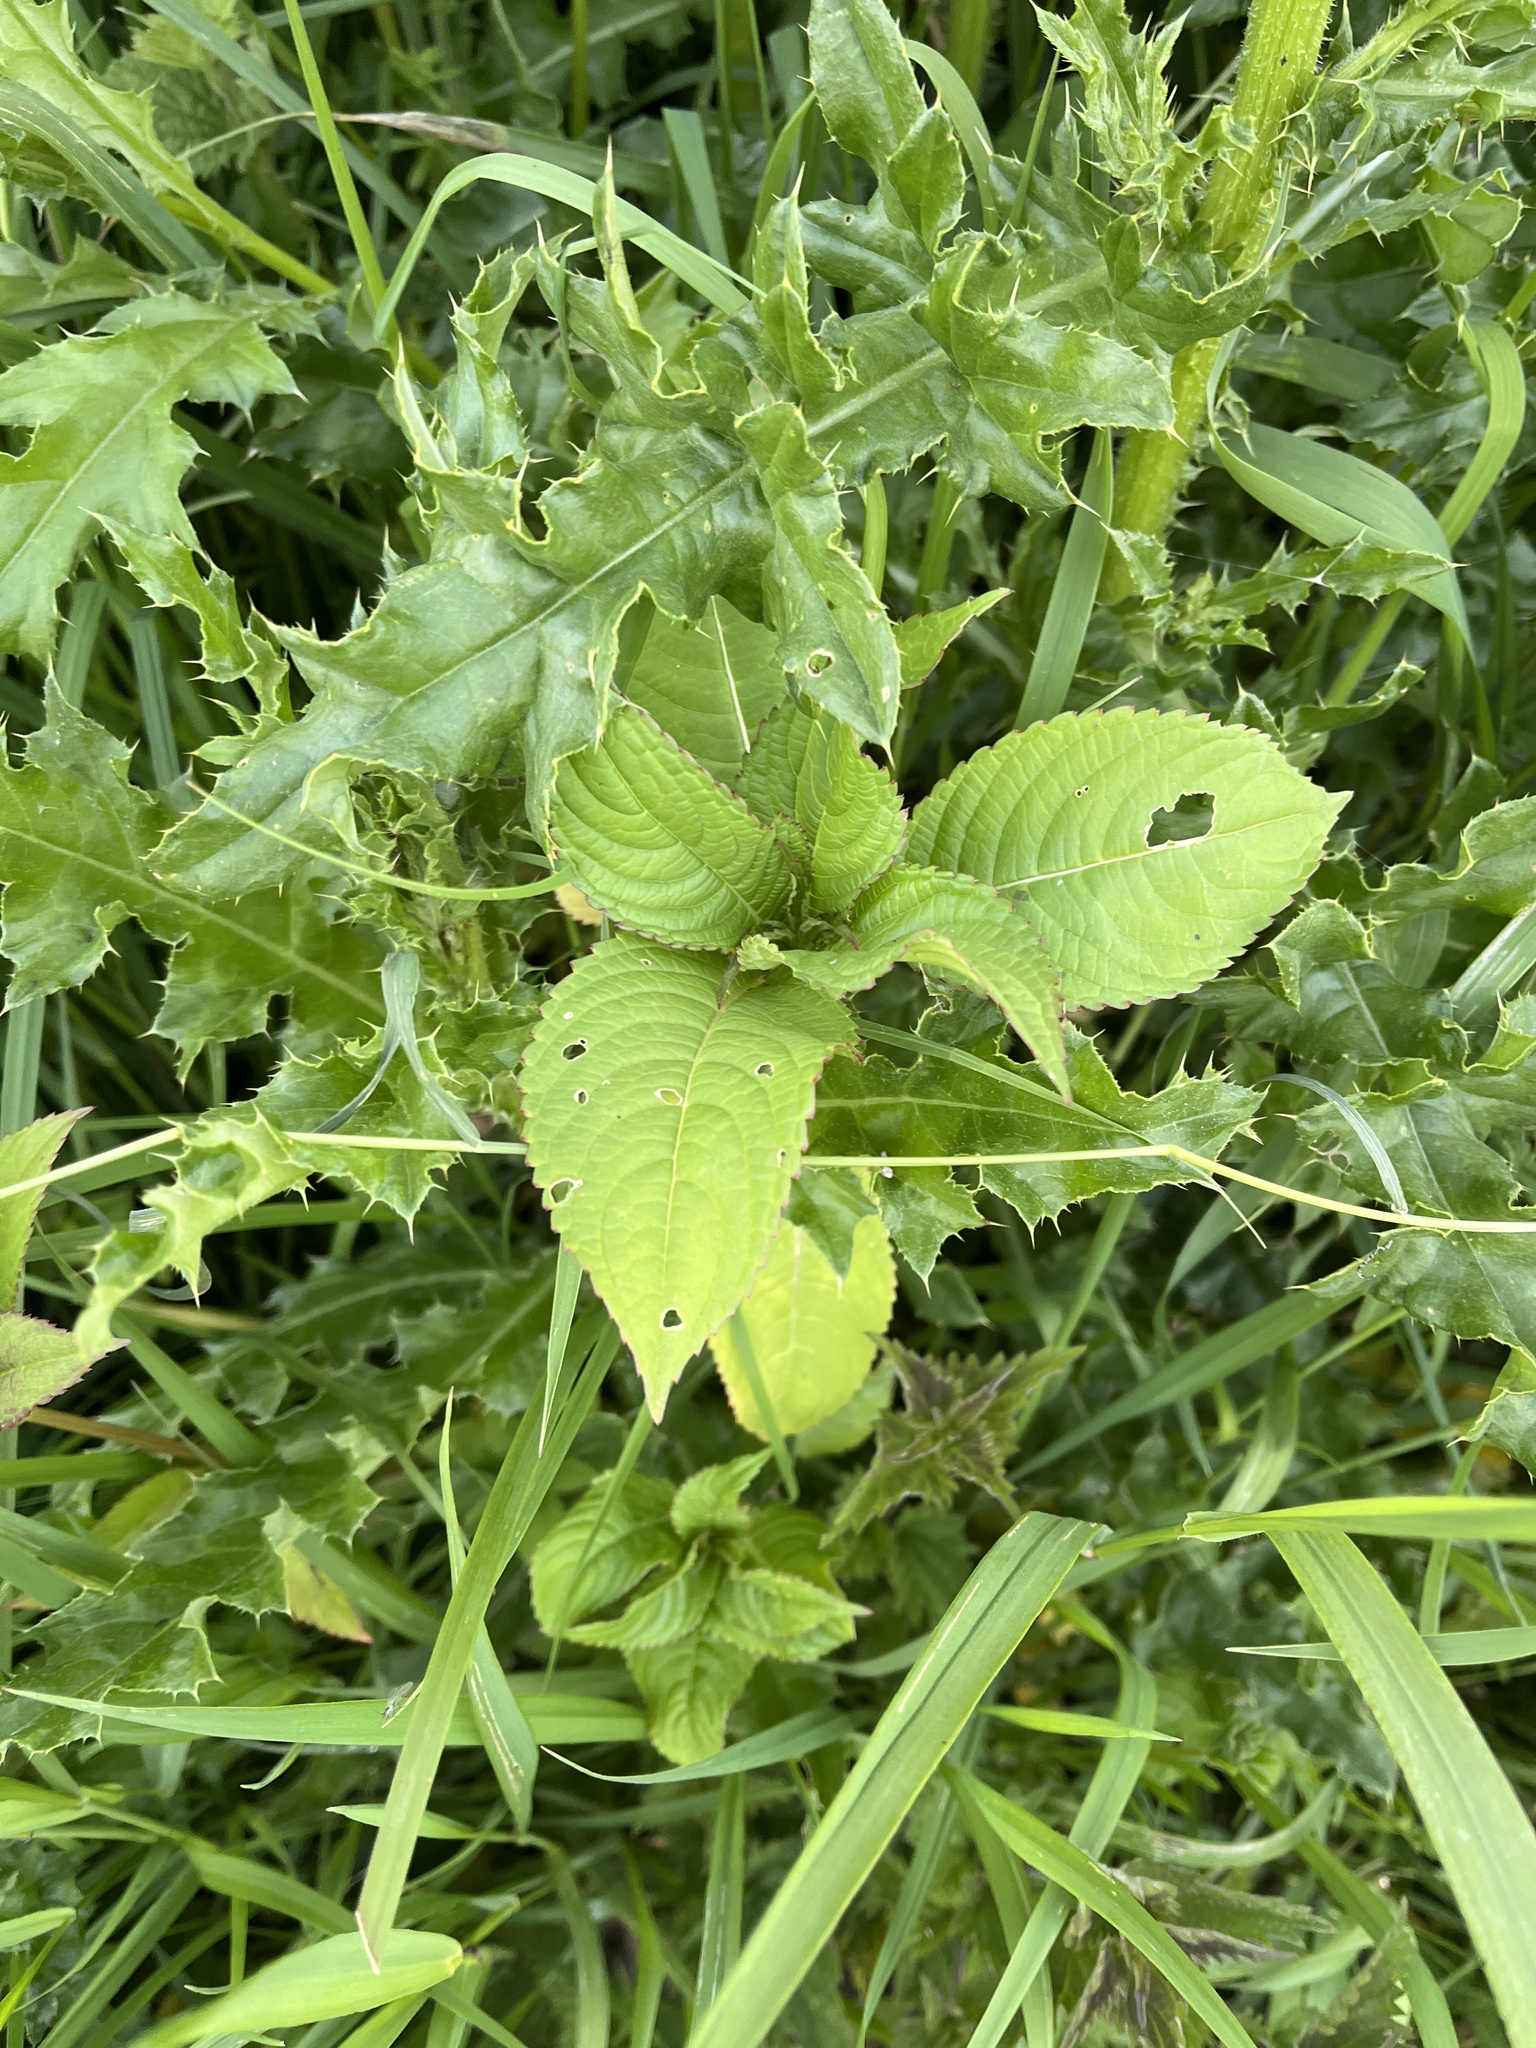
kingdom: Plantae
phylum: Tracheophyta
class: Magnoliopsida
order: Ericales
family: Balsaminaceae
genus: Impatiens
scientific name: Impatiens glandulifera
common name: Himalayan balsam
